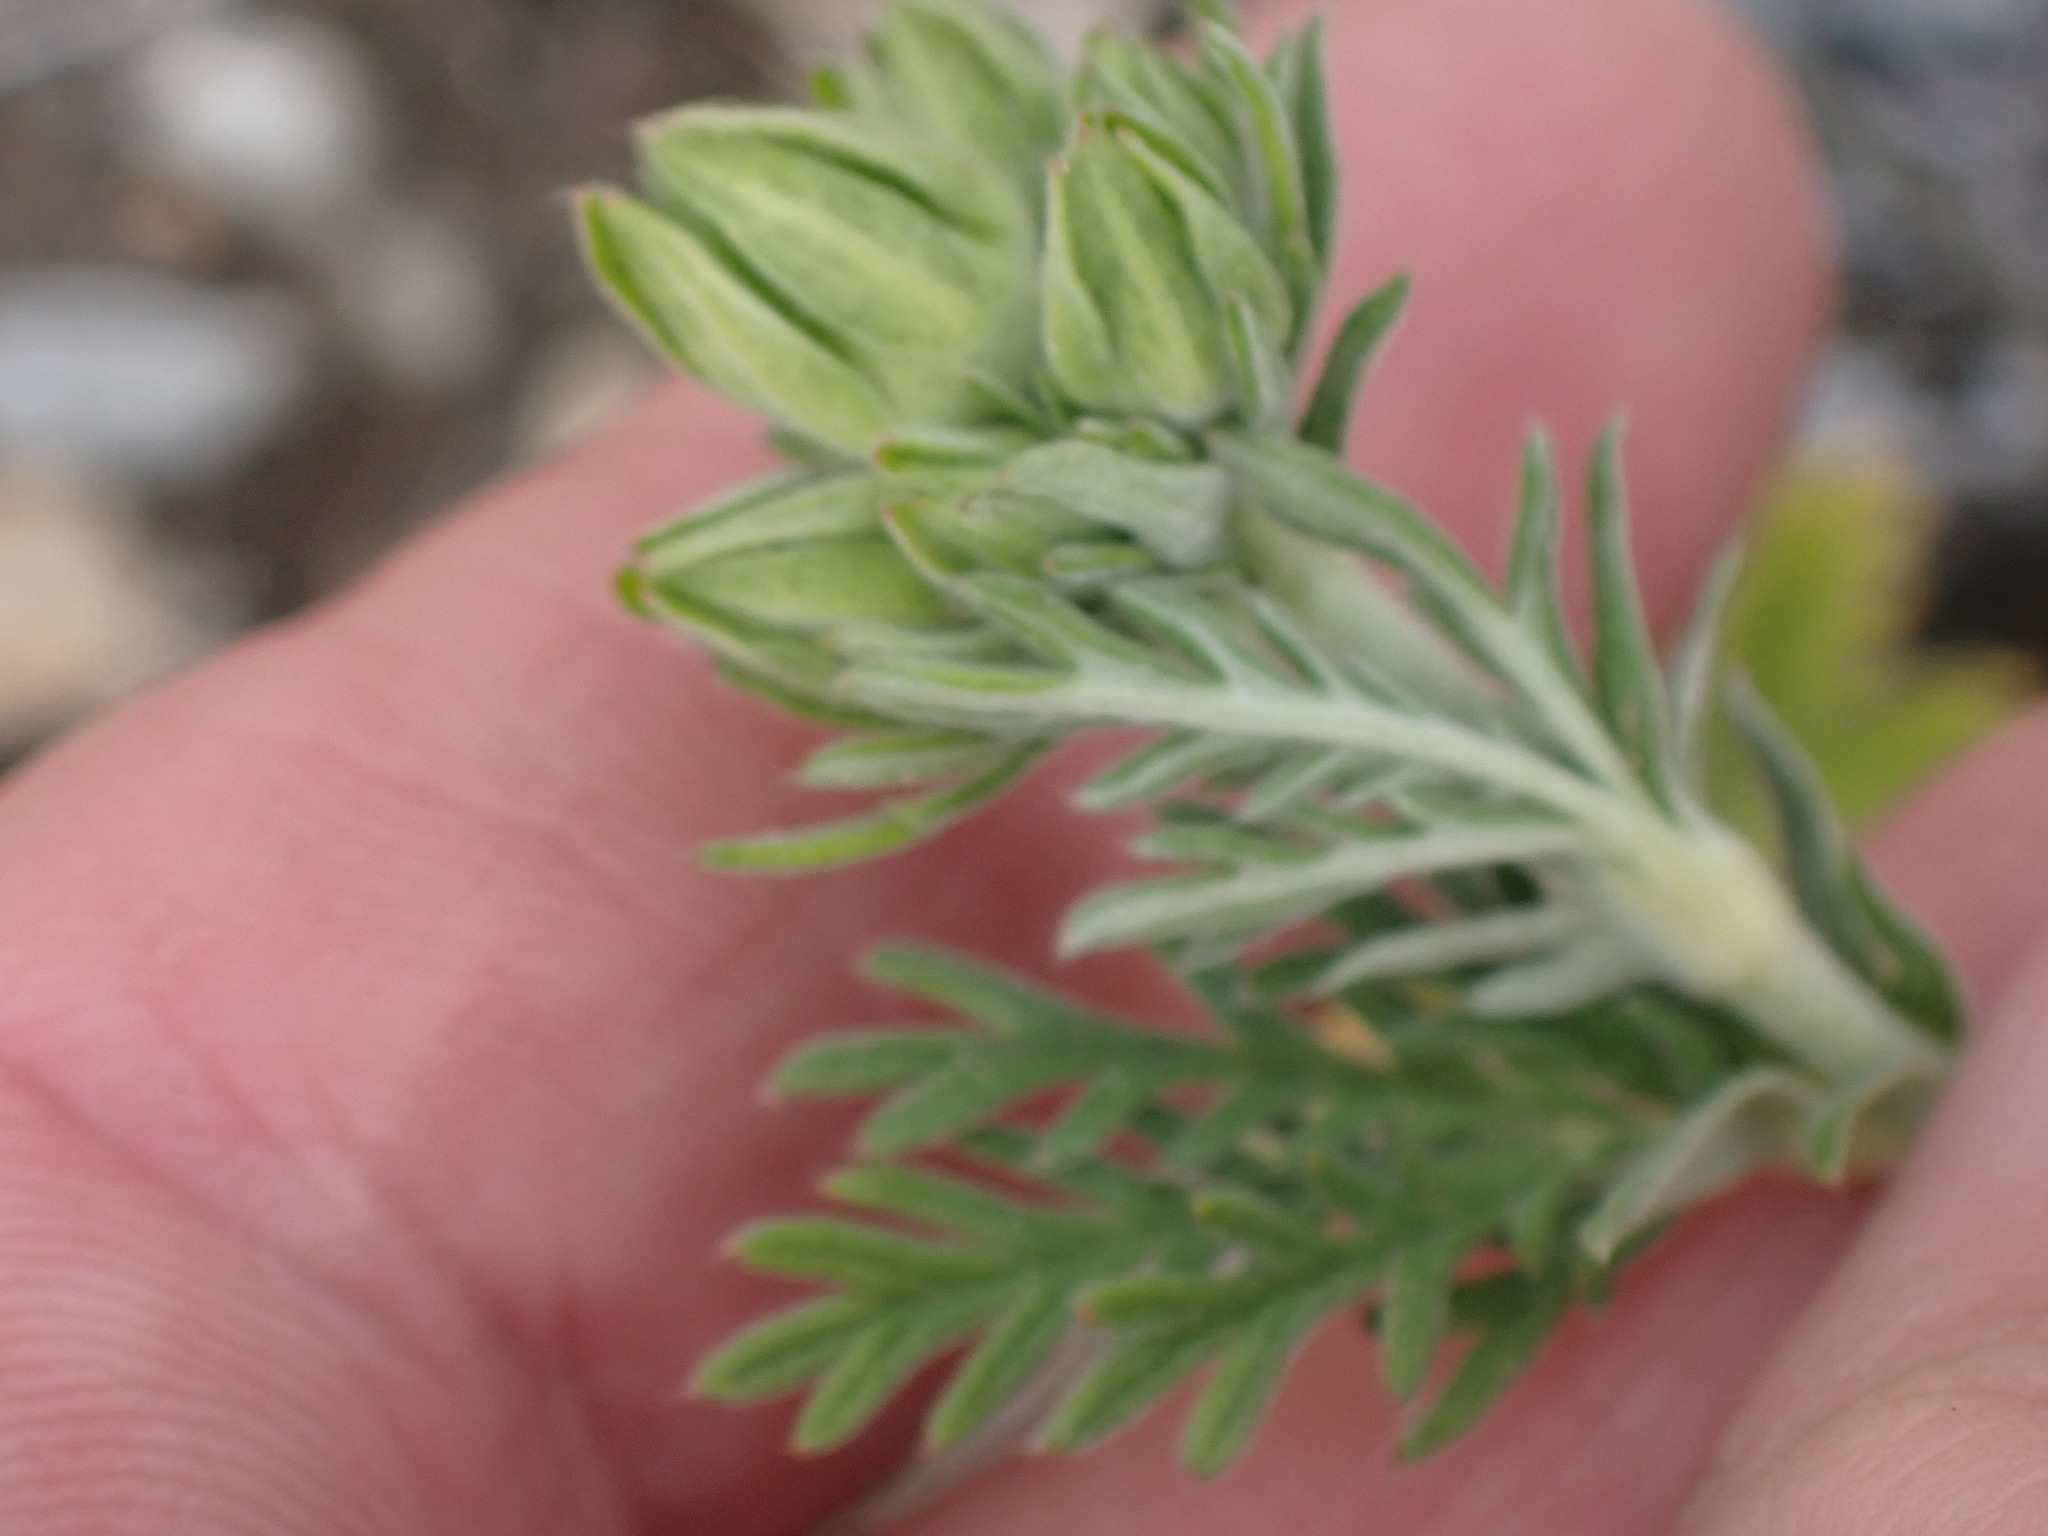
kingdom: Plantae
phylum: Tracheophyta
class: Magnoliopsida
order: Rosales
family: Rosaceae
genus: Potentilla
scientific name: Potentilla pensylvanica
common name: Pennsylvania cinquefoil
